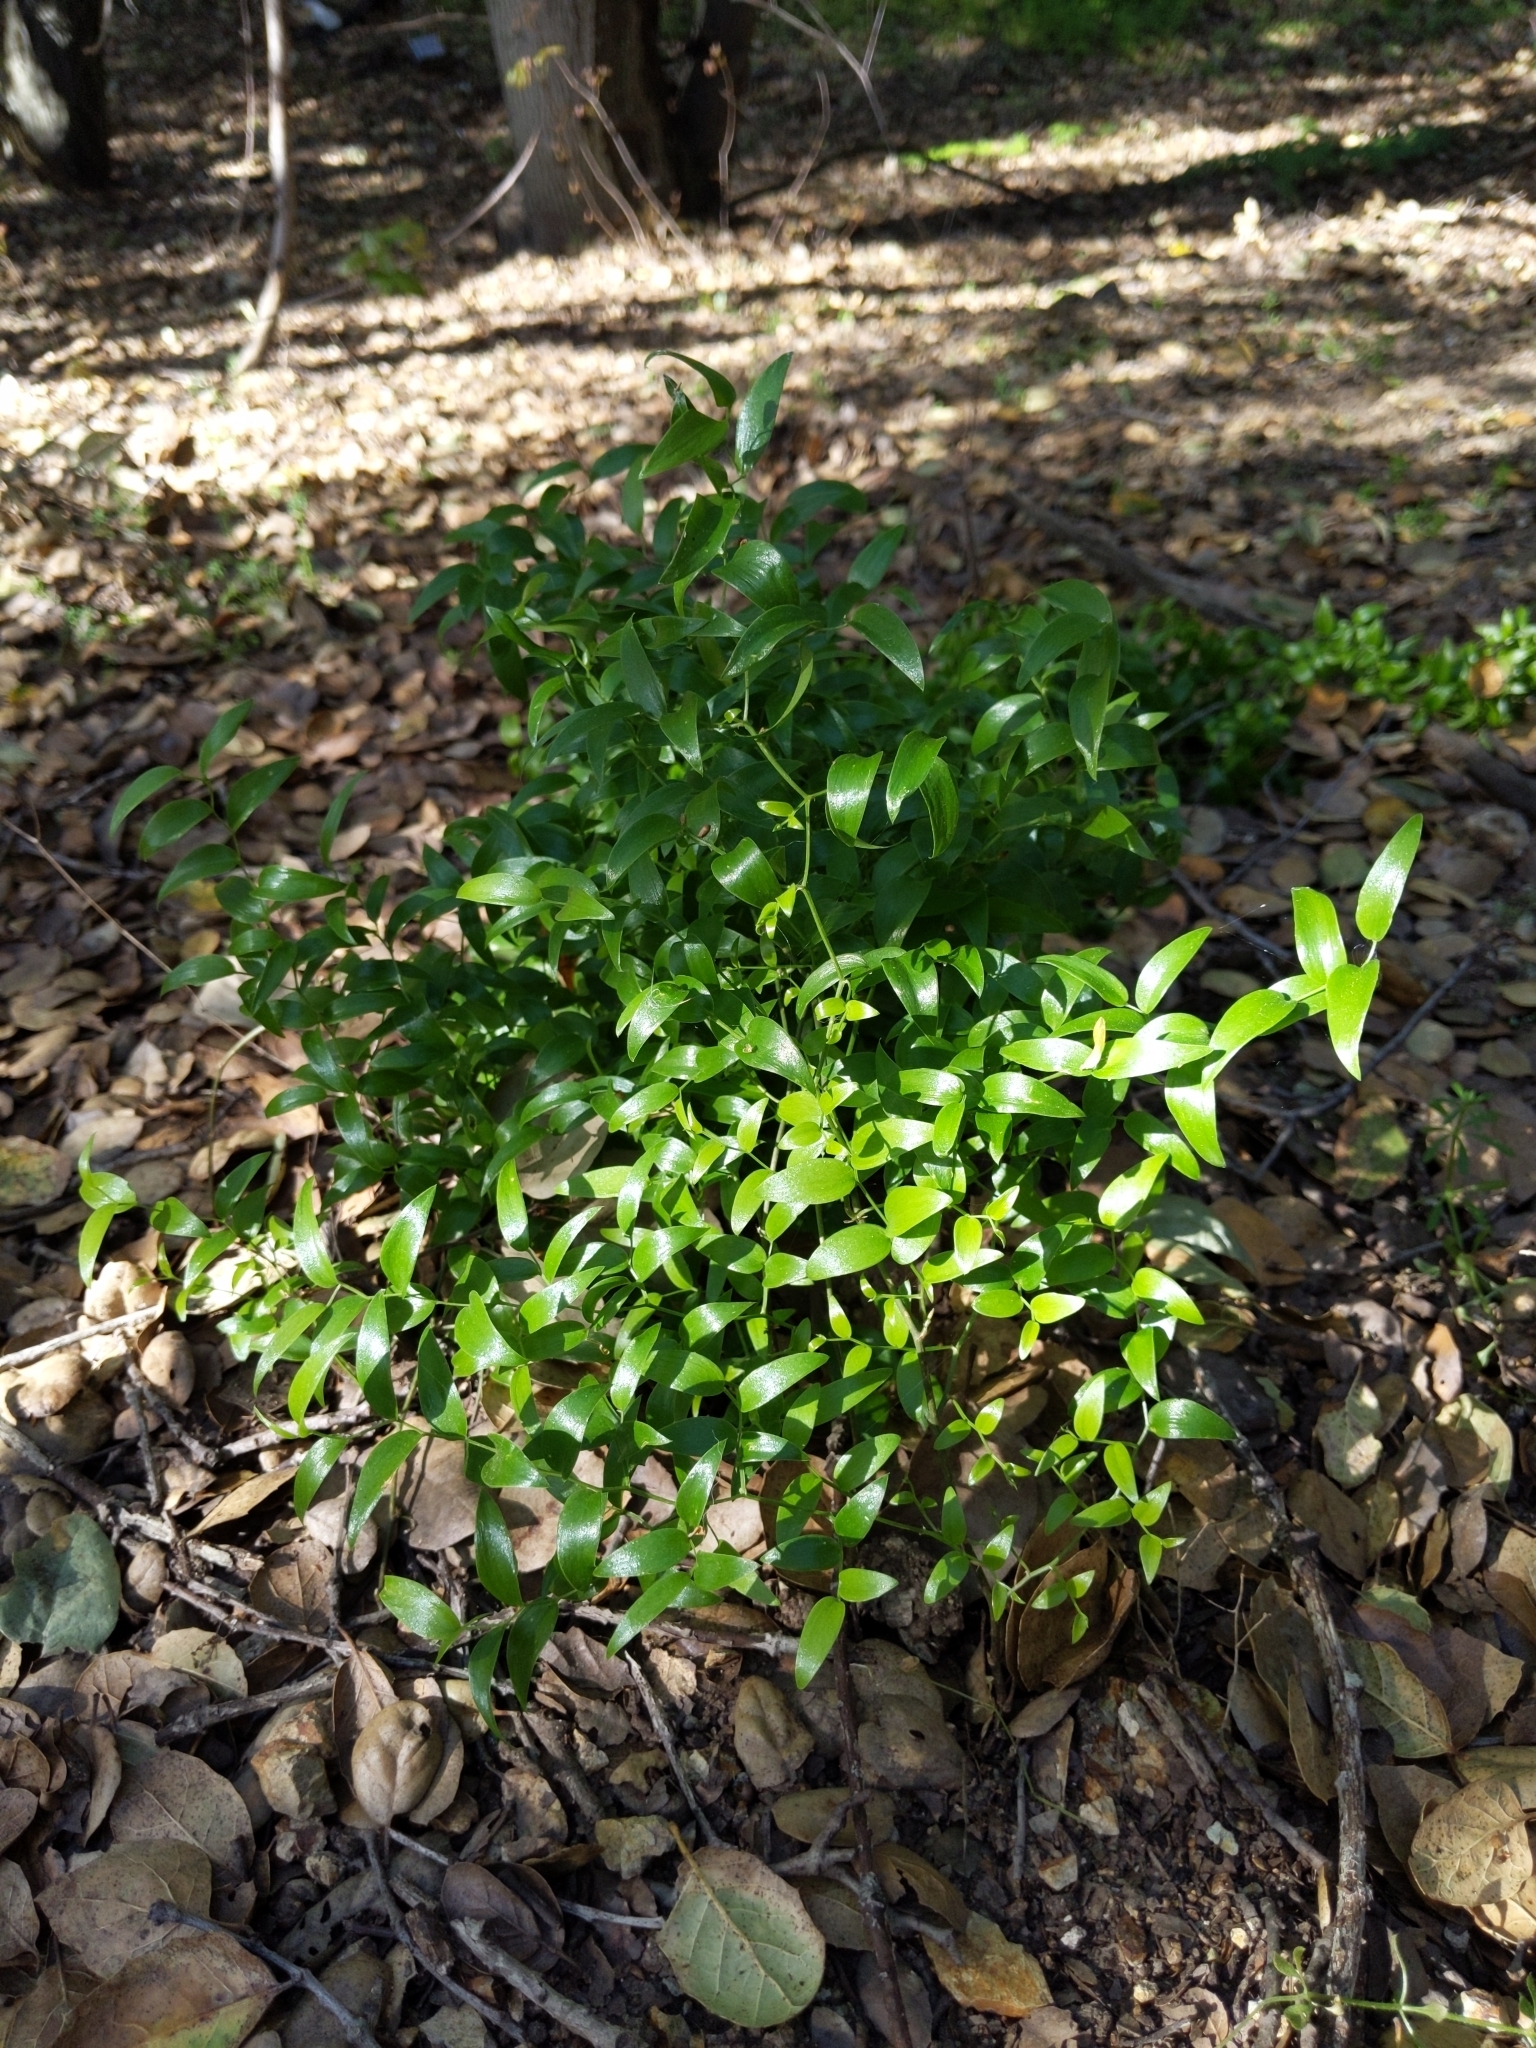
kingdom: Plantae
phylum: Tracheophyta
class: Liliopsida
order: Asparagales
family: Asparagaceae
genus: Asparagus
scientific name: Asparagus asparagoides
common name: African asparagus fern
